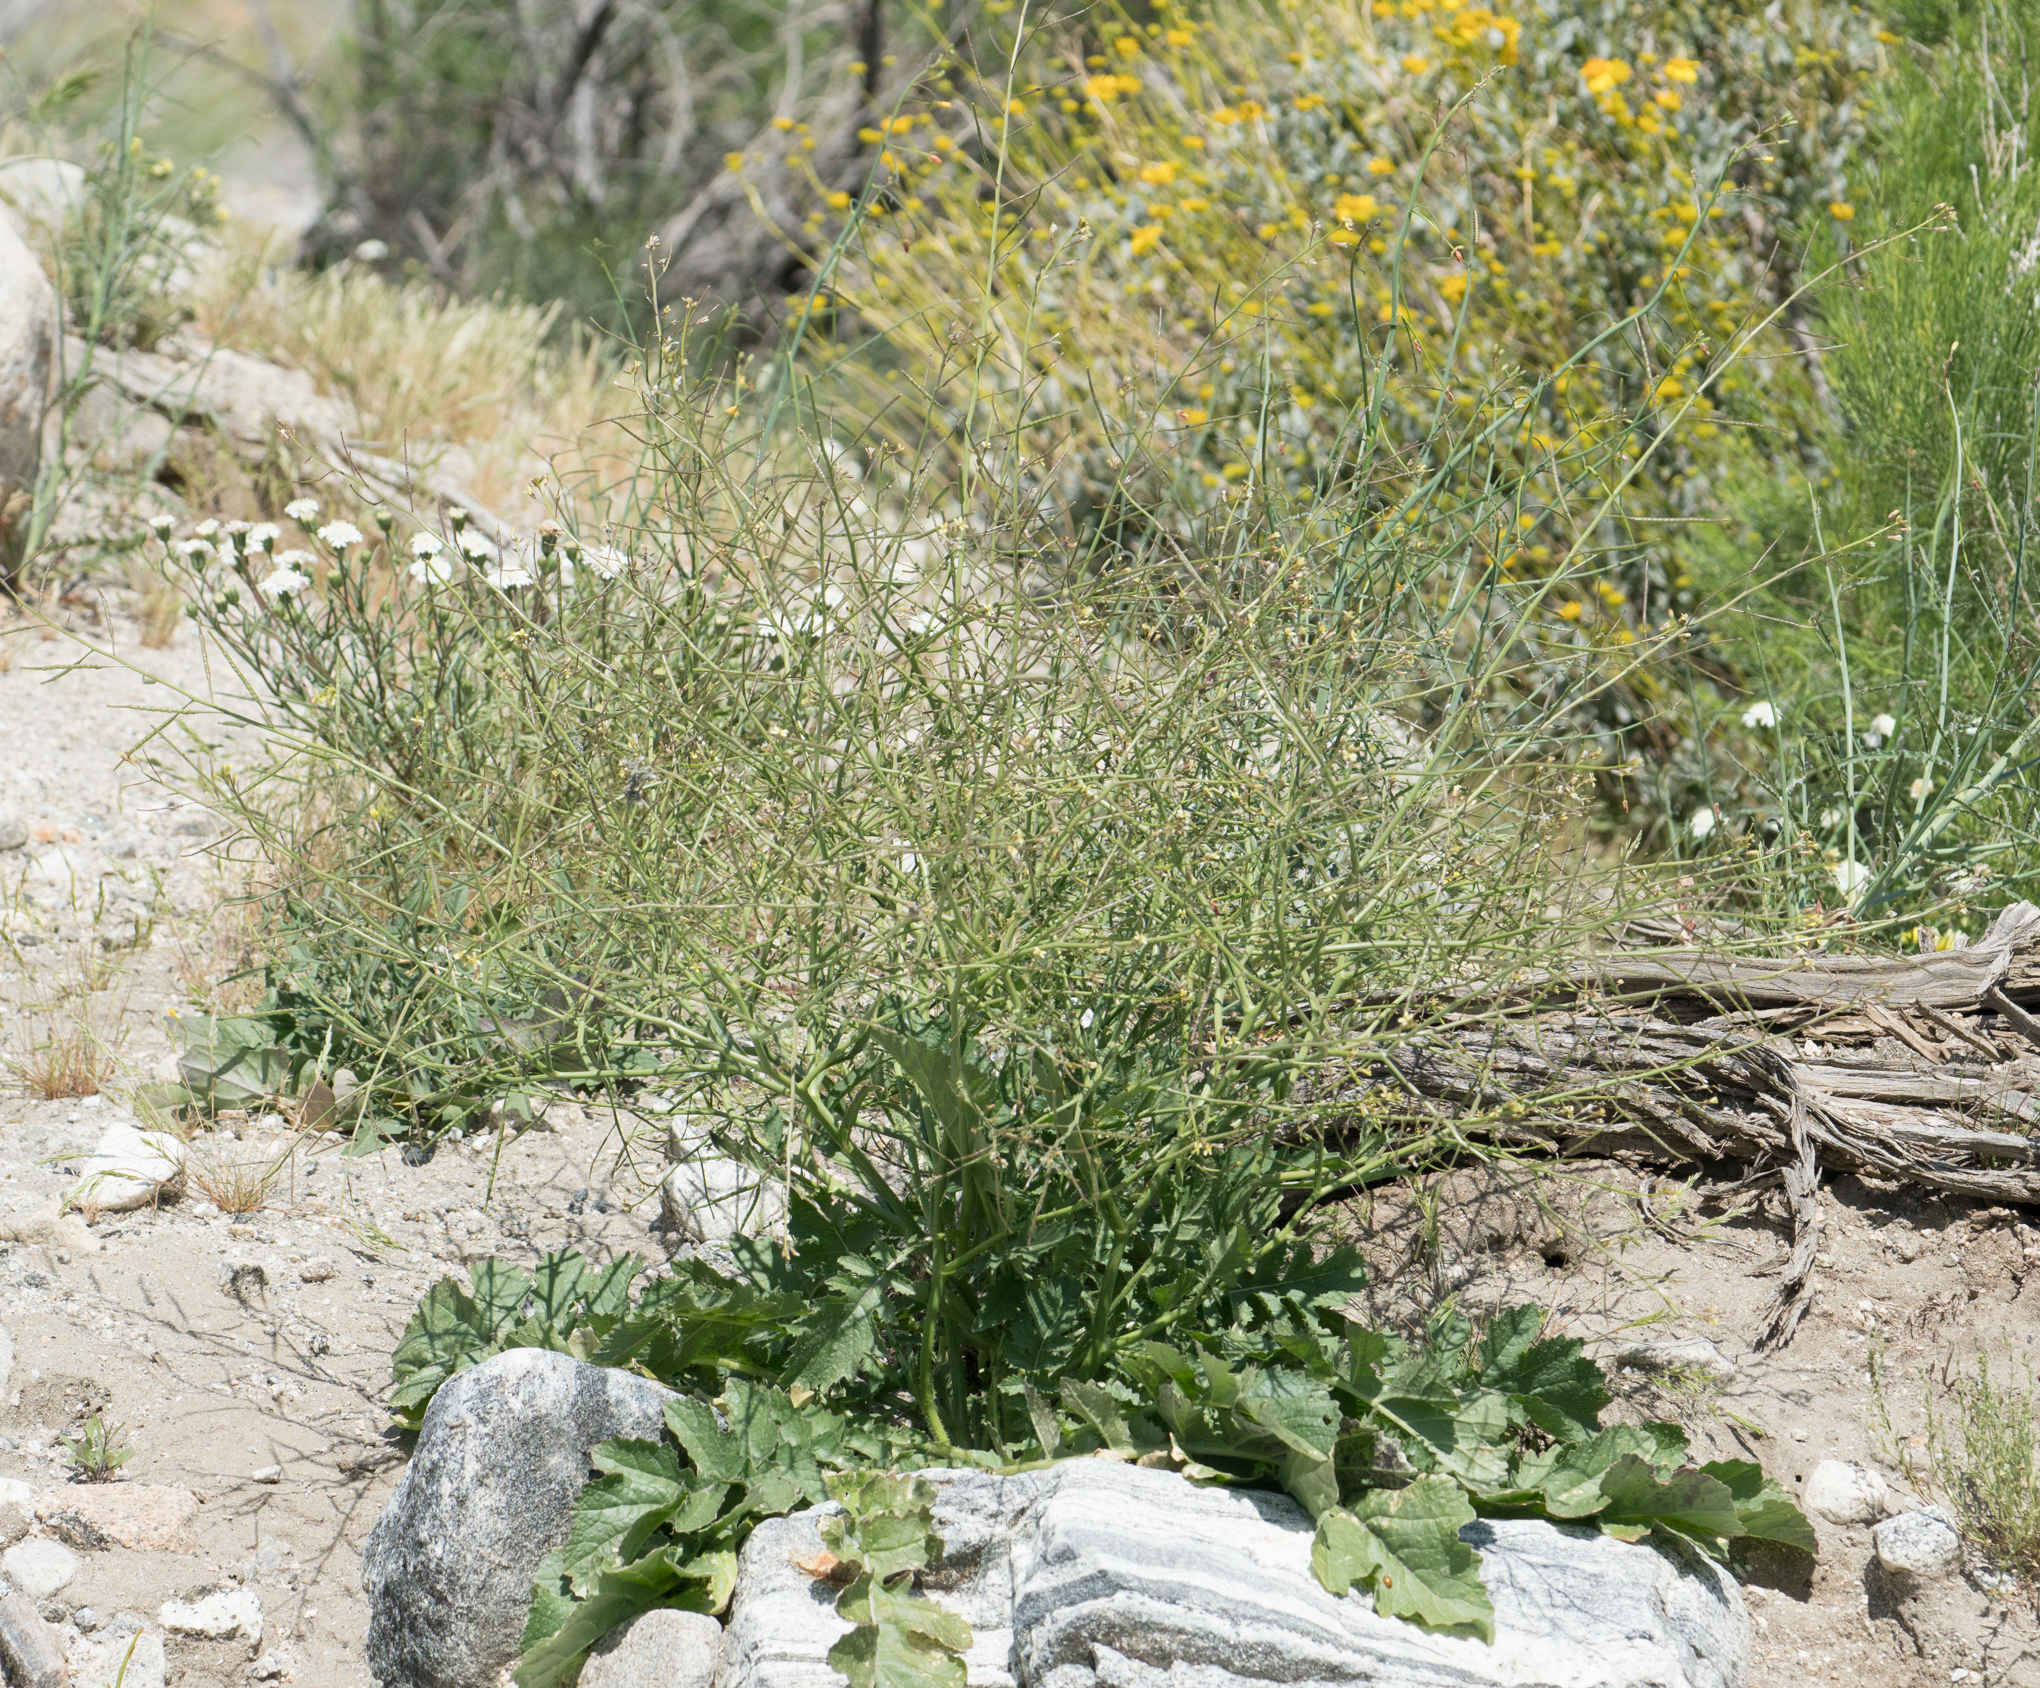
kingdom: Plantae
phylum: Tracheophyta
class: Magnoliopsida
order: Brassicales
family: Brassicaceae
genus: Brassica
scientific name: Brassica tournefortii
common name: Pale cabbage
